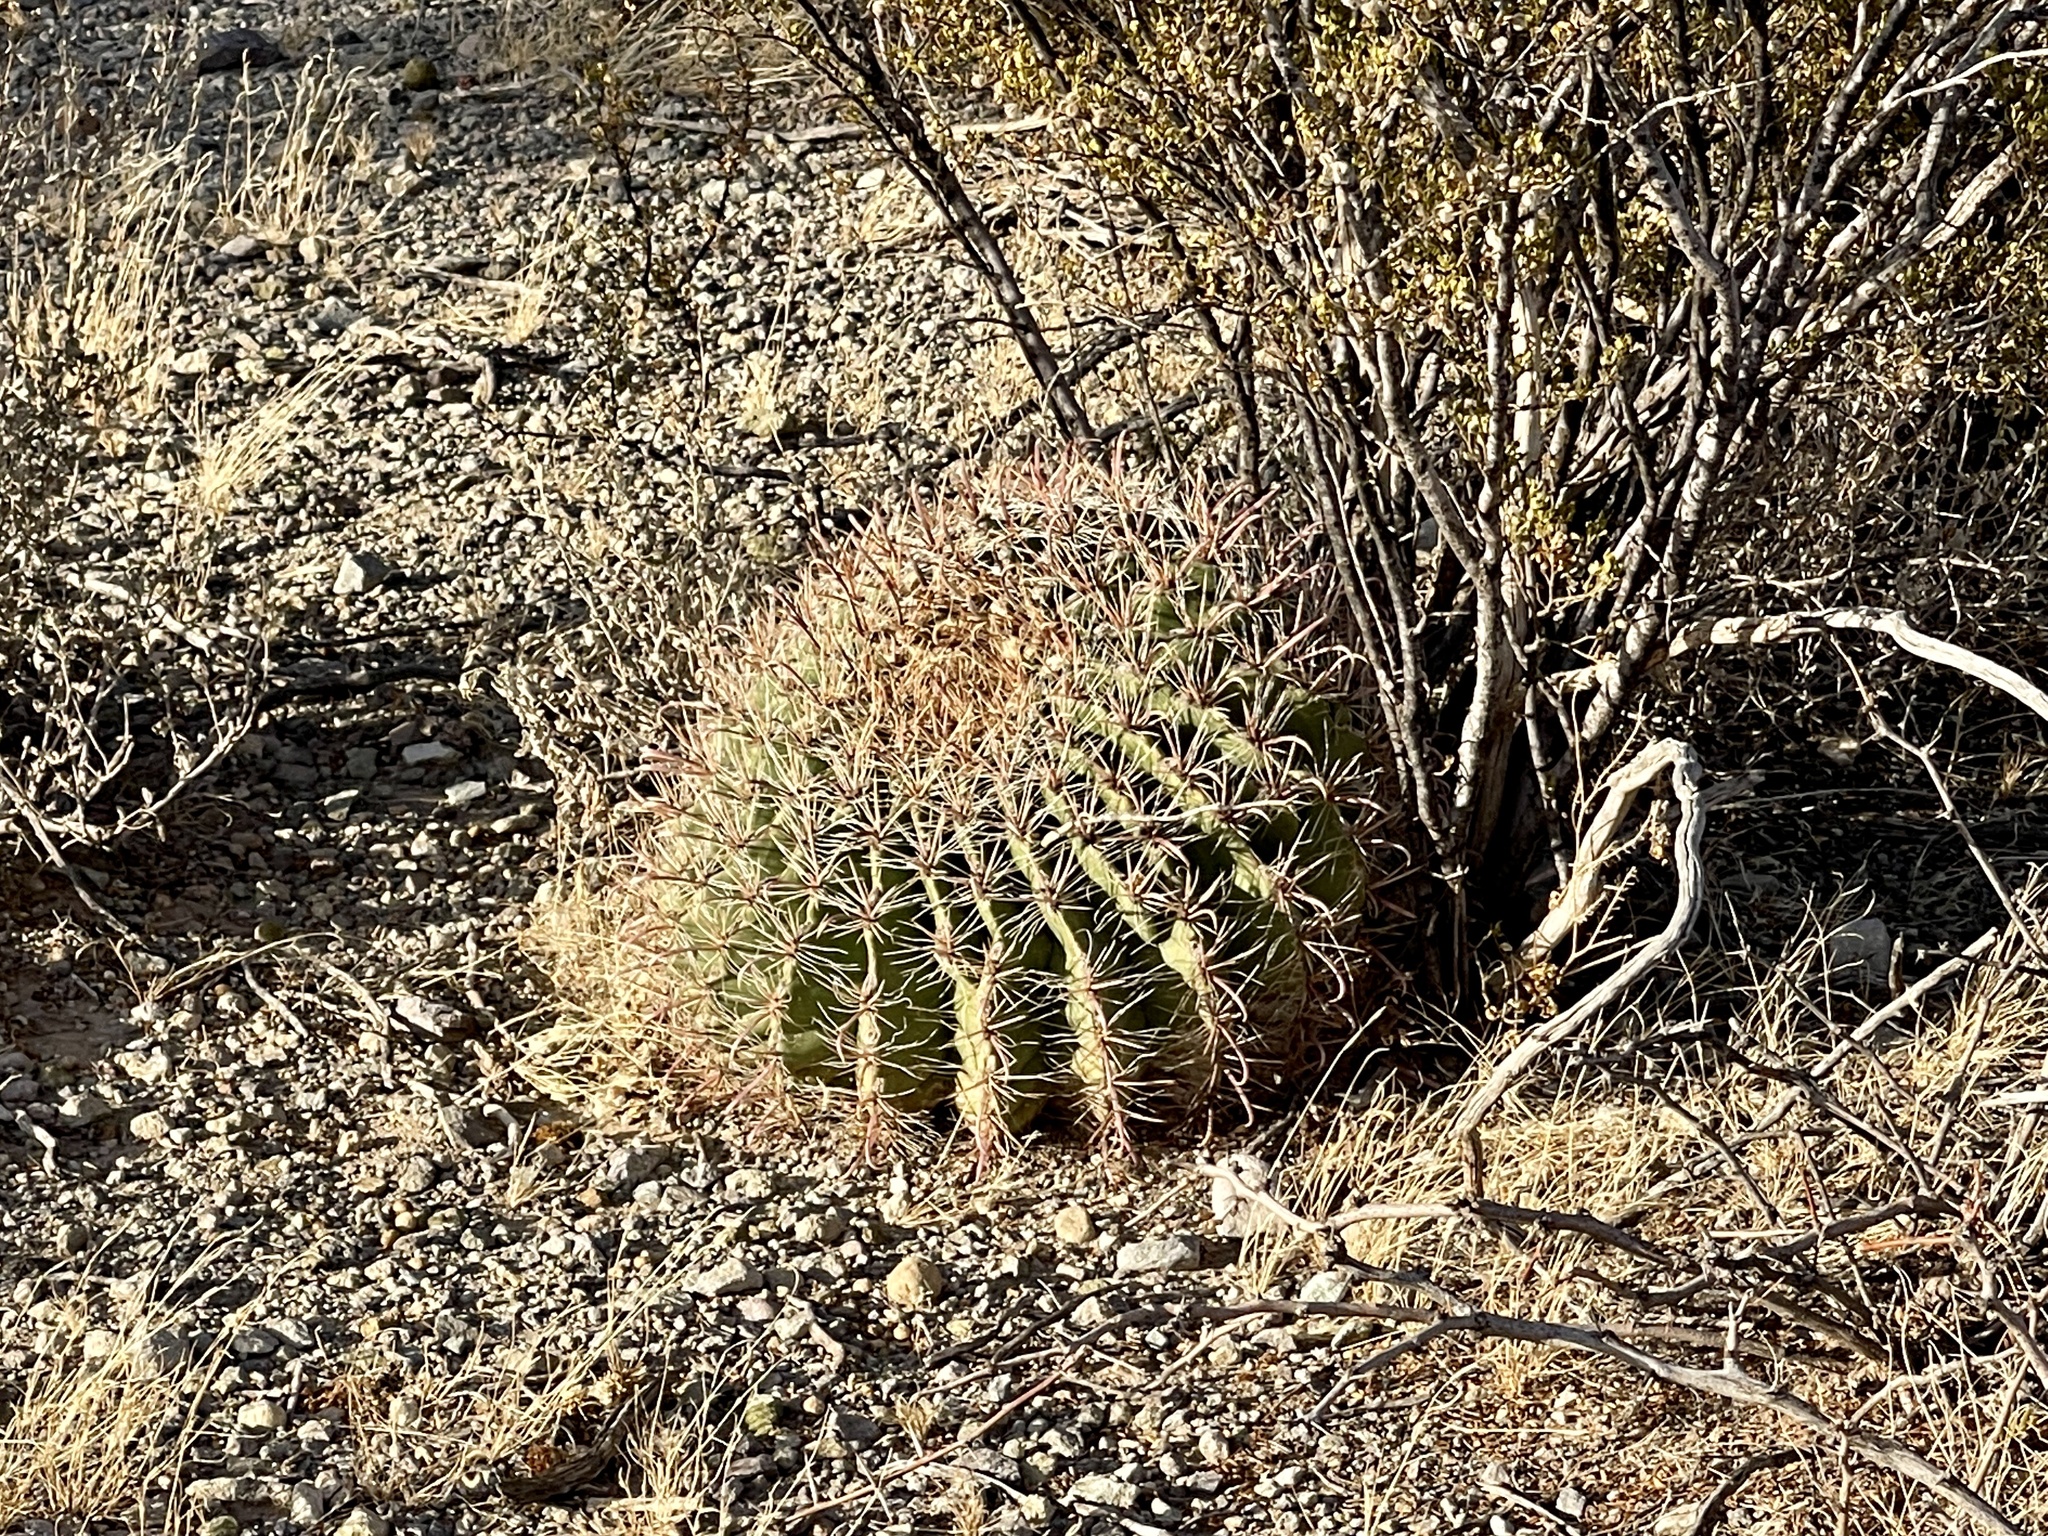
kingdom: Plantae
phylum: Tracheophyta
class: Magnoliopsida
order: Caryophyllales
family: Cactaceae
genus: Ferocactus
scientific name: Ferocactus wislizeni
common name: Candy barrel cactus
